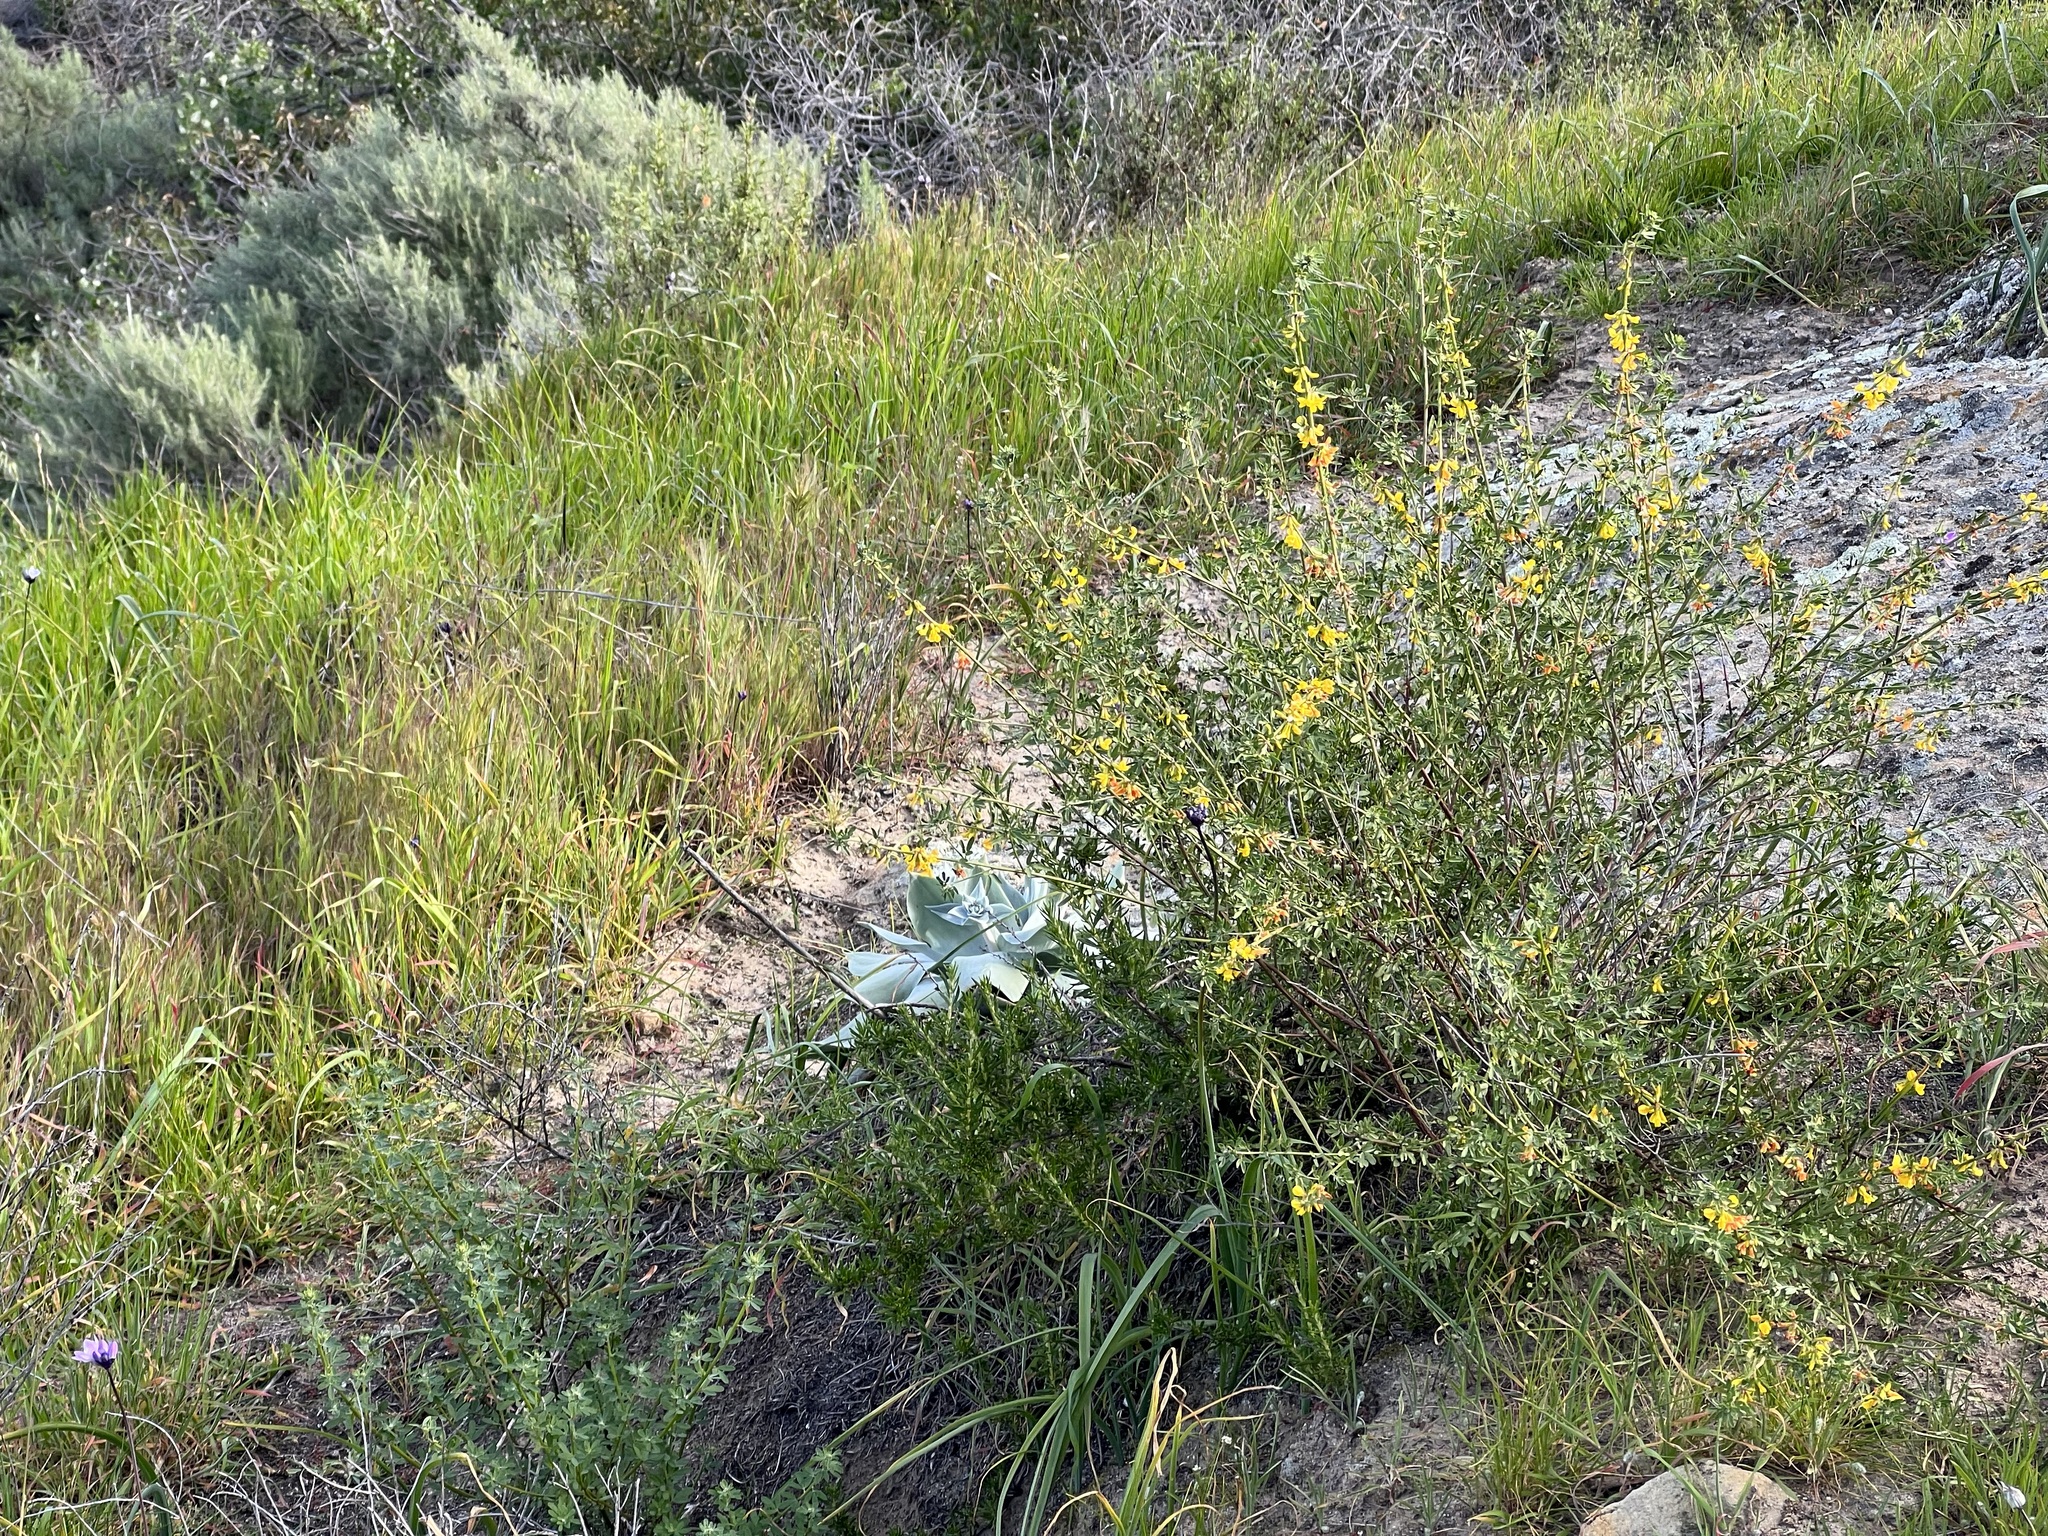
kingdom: Plantae
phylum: Tracheophyta
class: Magnoliopsida
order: Saxifragales
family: Crassulaceae
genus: Dudleya
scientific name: Dudleya pulverulenta
